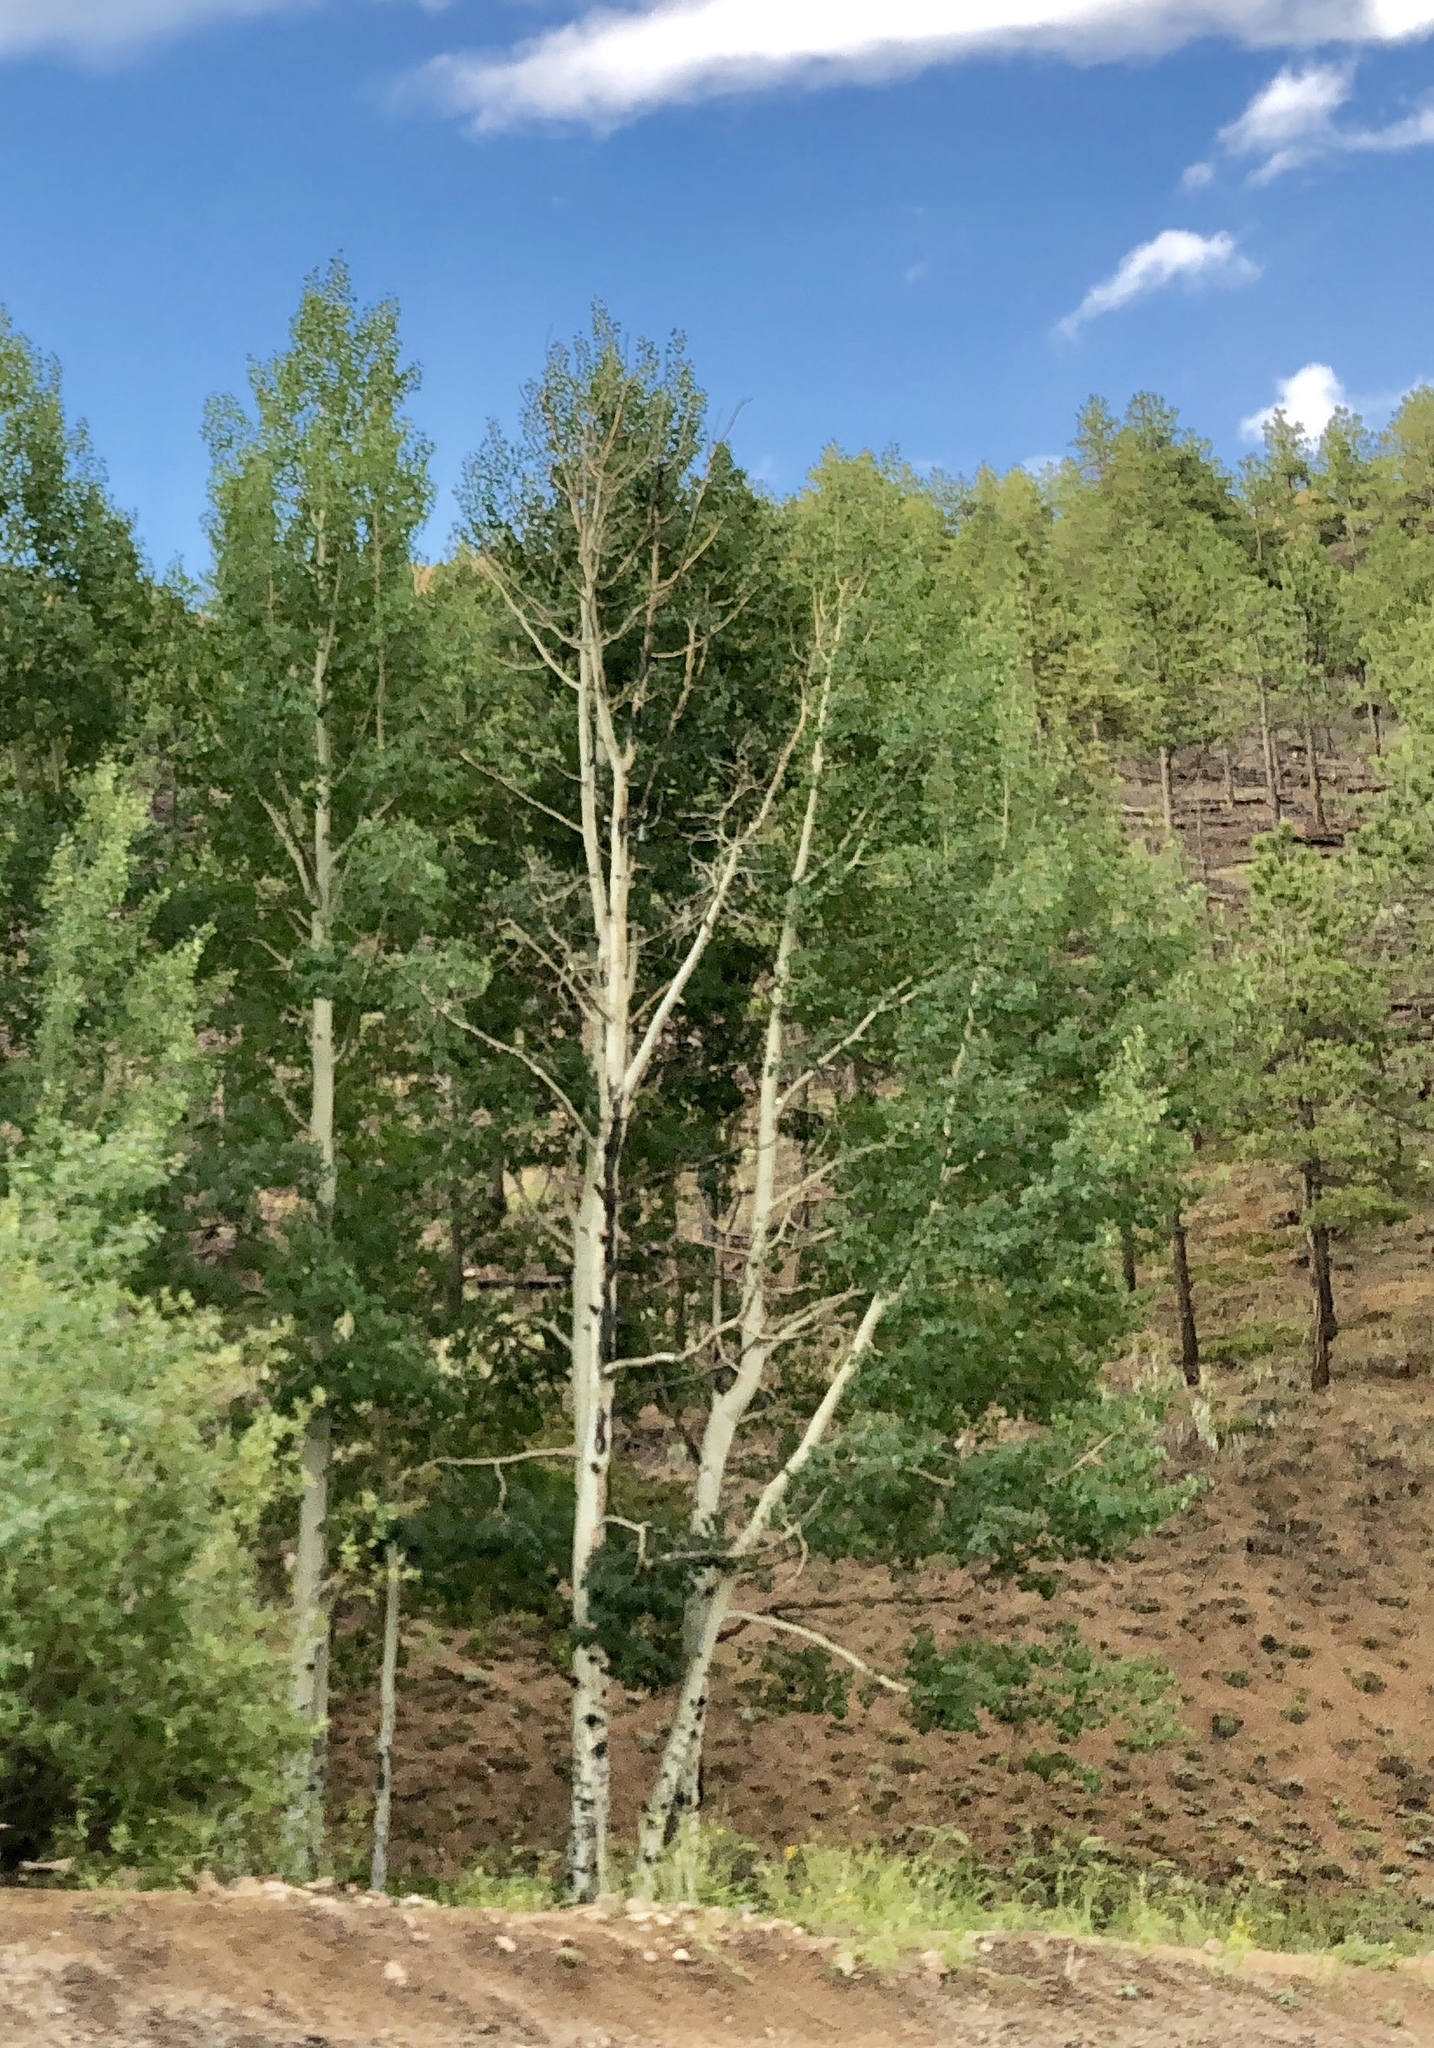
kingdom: Plantae
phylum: Tracheophyta
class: Magnoliopsida
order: Malpighiales
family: Salicaceae
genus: Populus
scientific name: Populus tremuloides
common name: Quaking aspen
